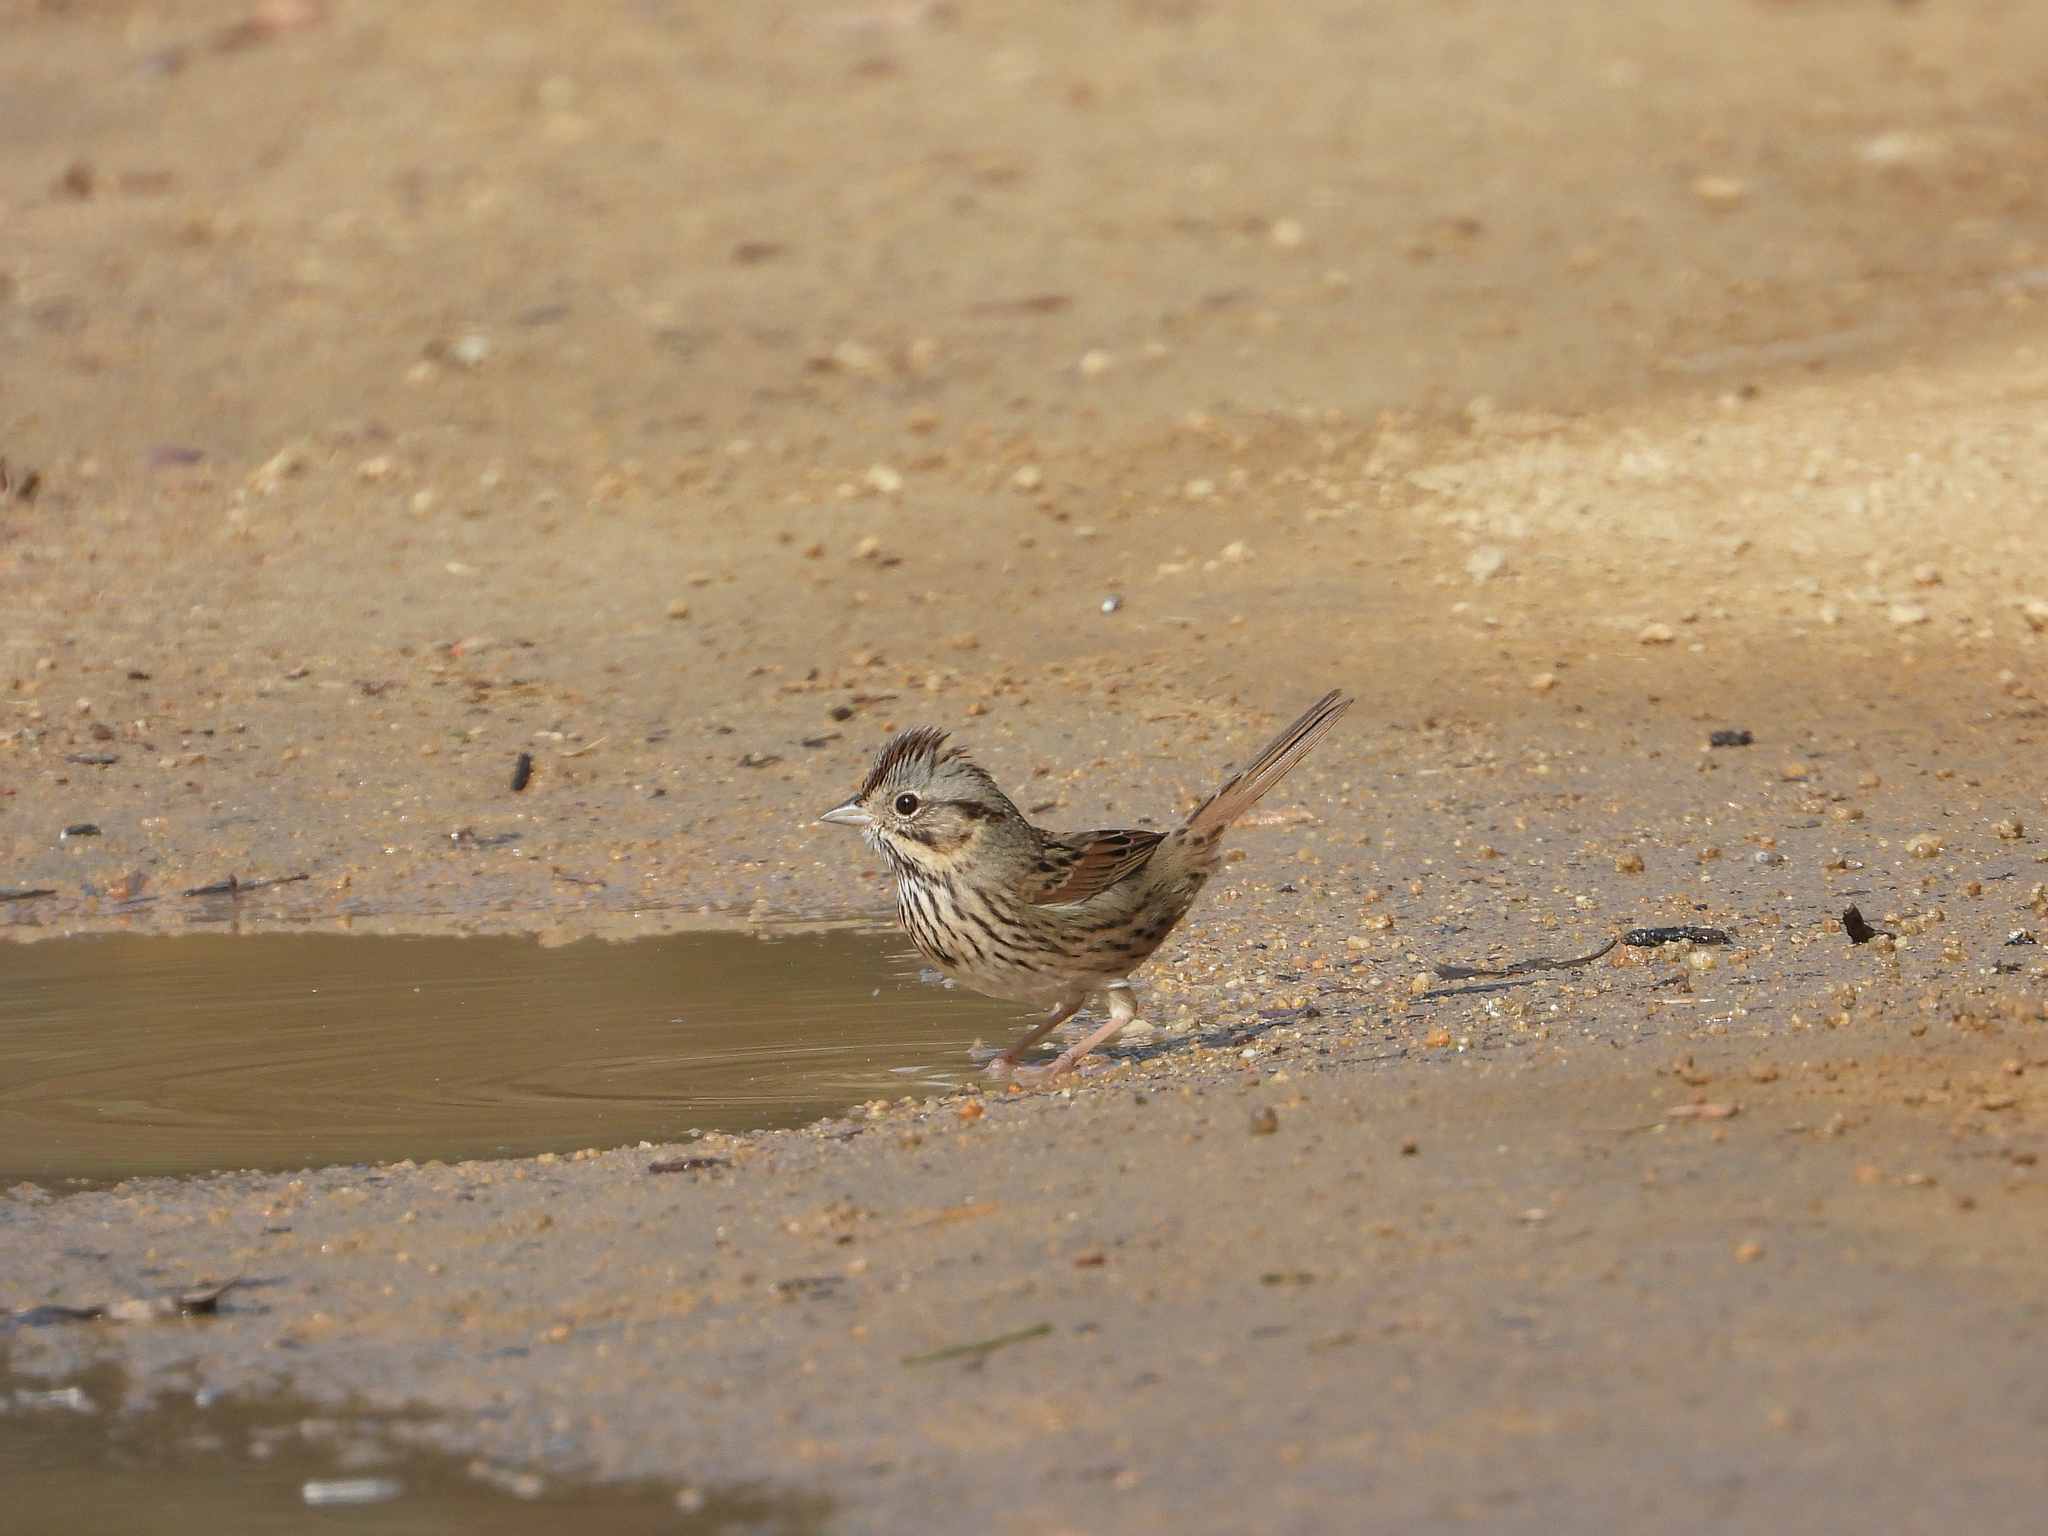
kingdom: Animalia
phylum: Chordata
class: Aves
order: Passeriformes
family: Passerellidae
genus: Melospiza
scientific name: Melospiza lincolnii
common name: Lincoln's sparrow
